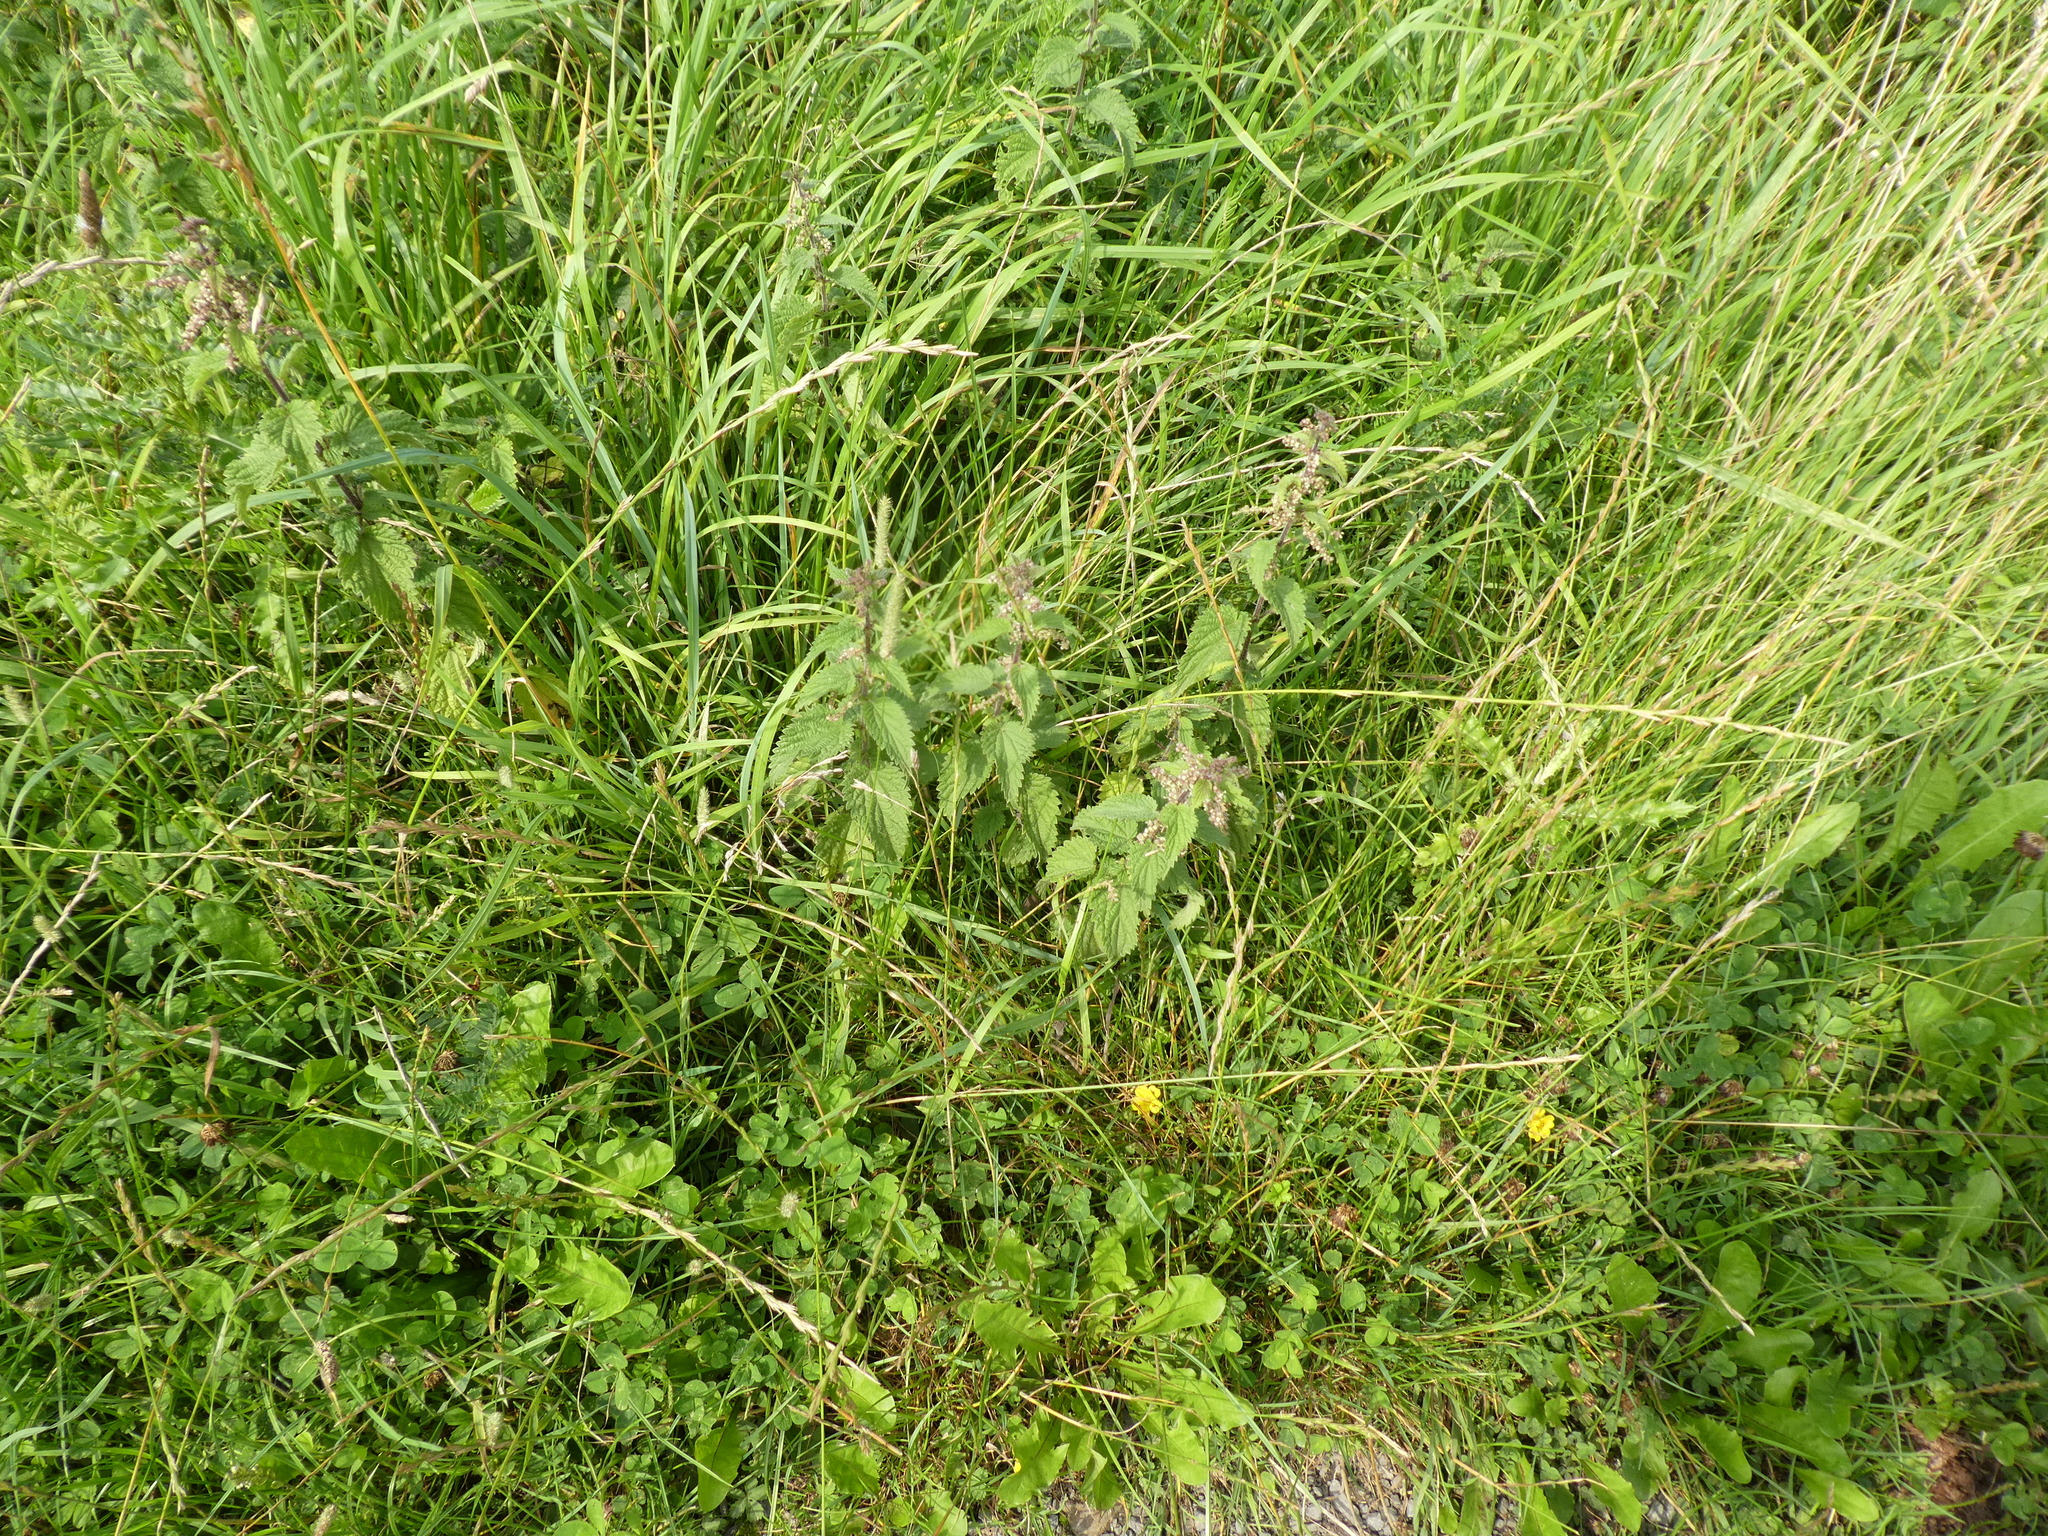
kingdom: Plantae
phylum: Tracheophyta
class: Magnoliopsida
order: Rosales
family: Urticaceae
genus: Urtica
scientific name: Urtica dioica
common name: Common nettle
